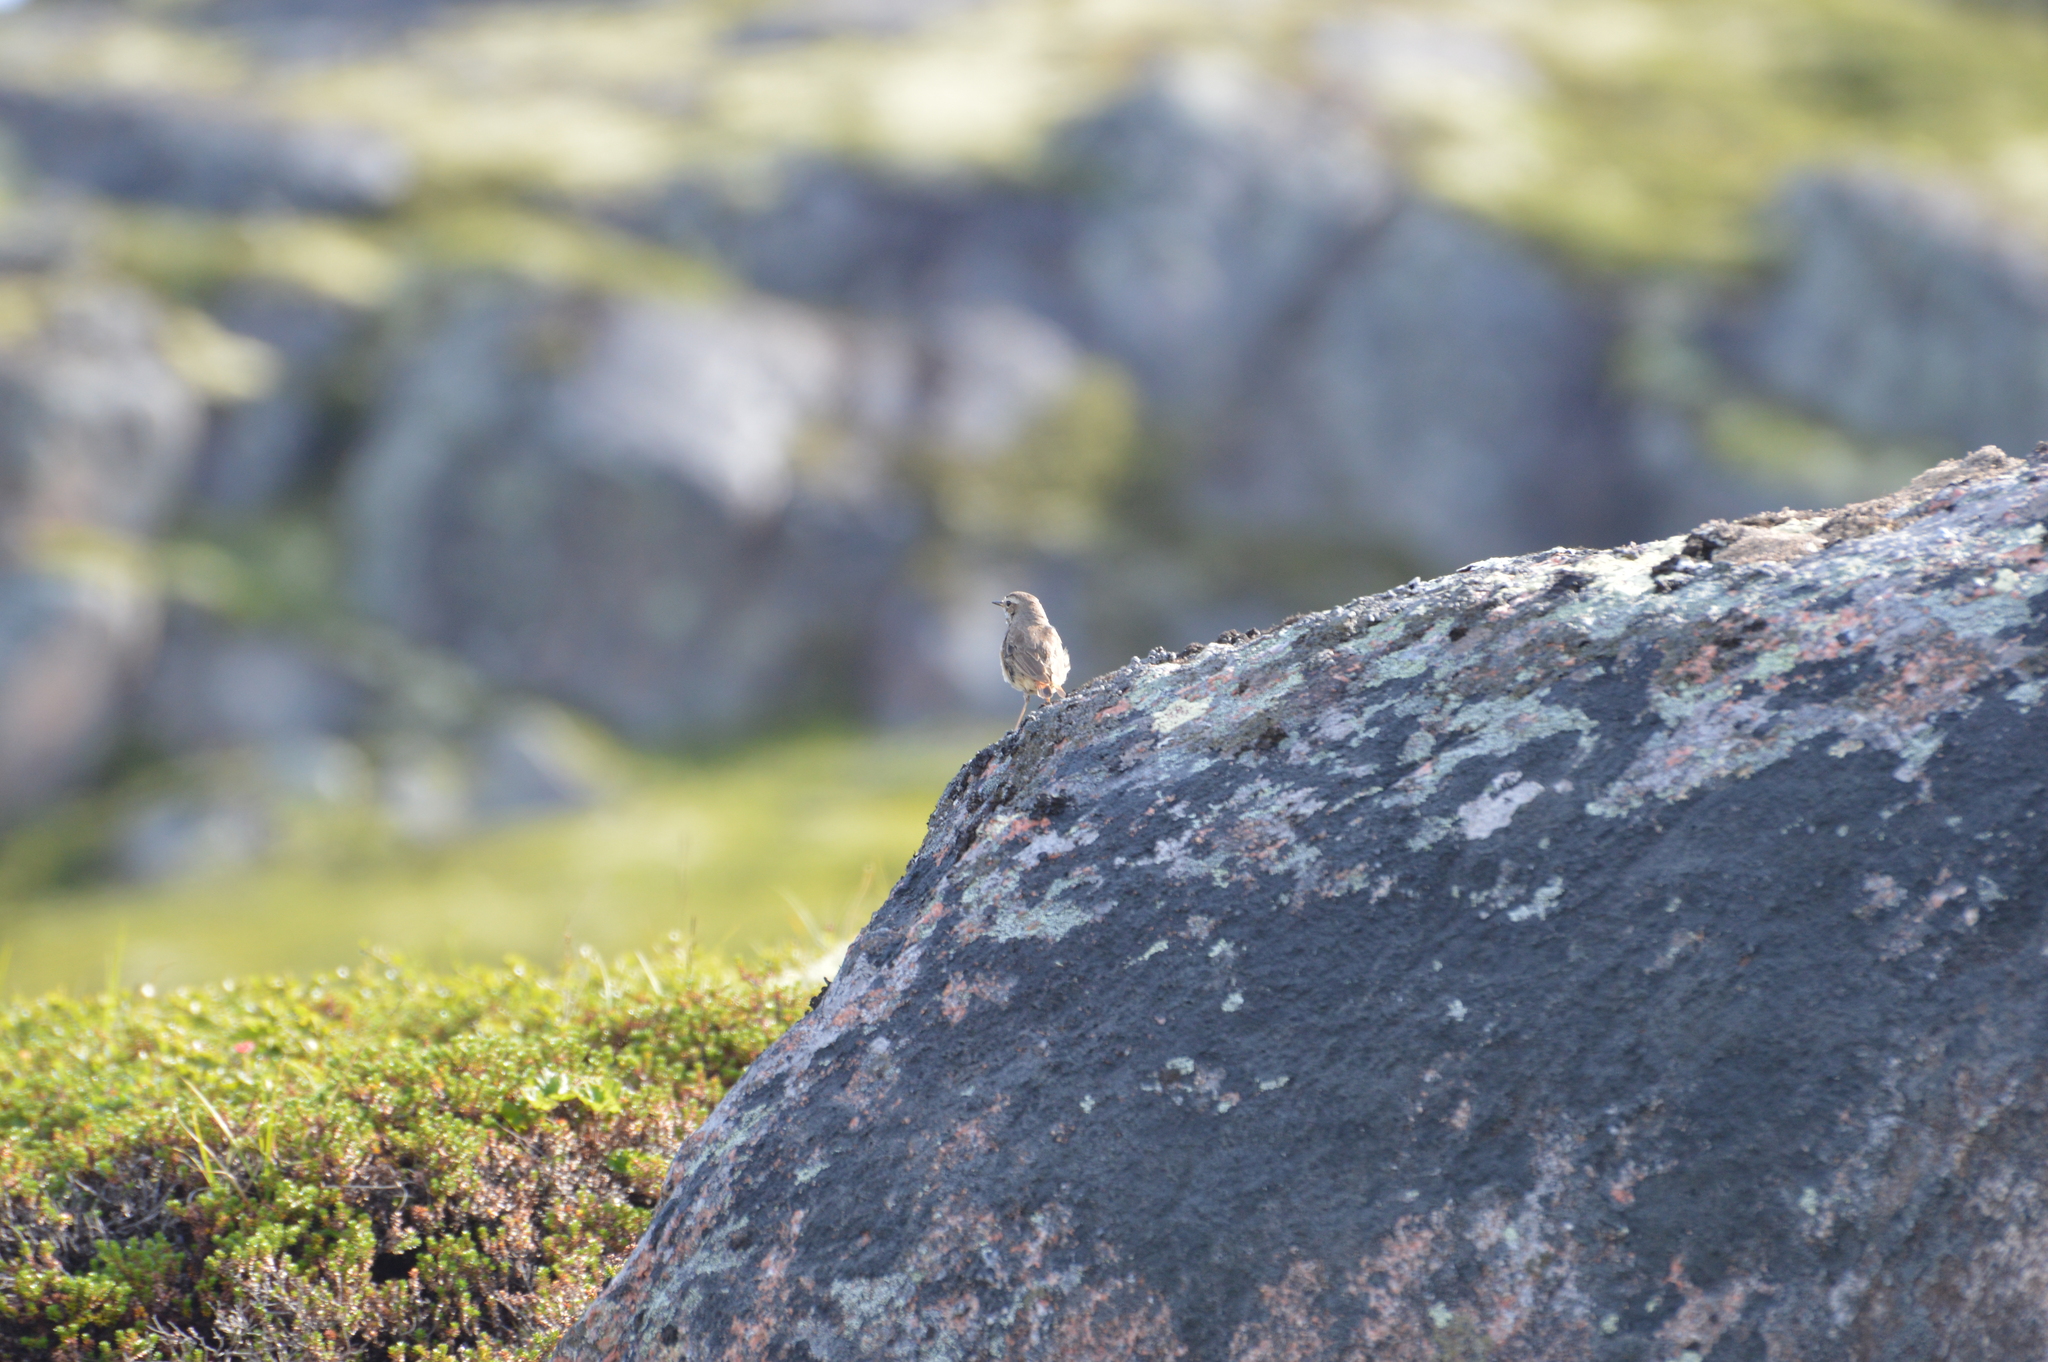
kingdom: Animalia
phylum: Chordata
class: Aves
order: Passeriformes
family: Muscicapidae
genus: Luscinia
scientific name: Luscinia svecica
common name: Bluethroat
